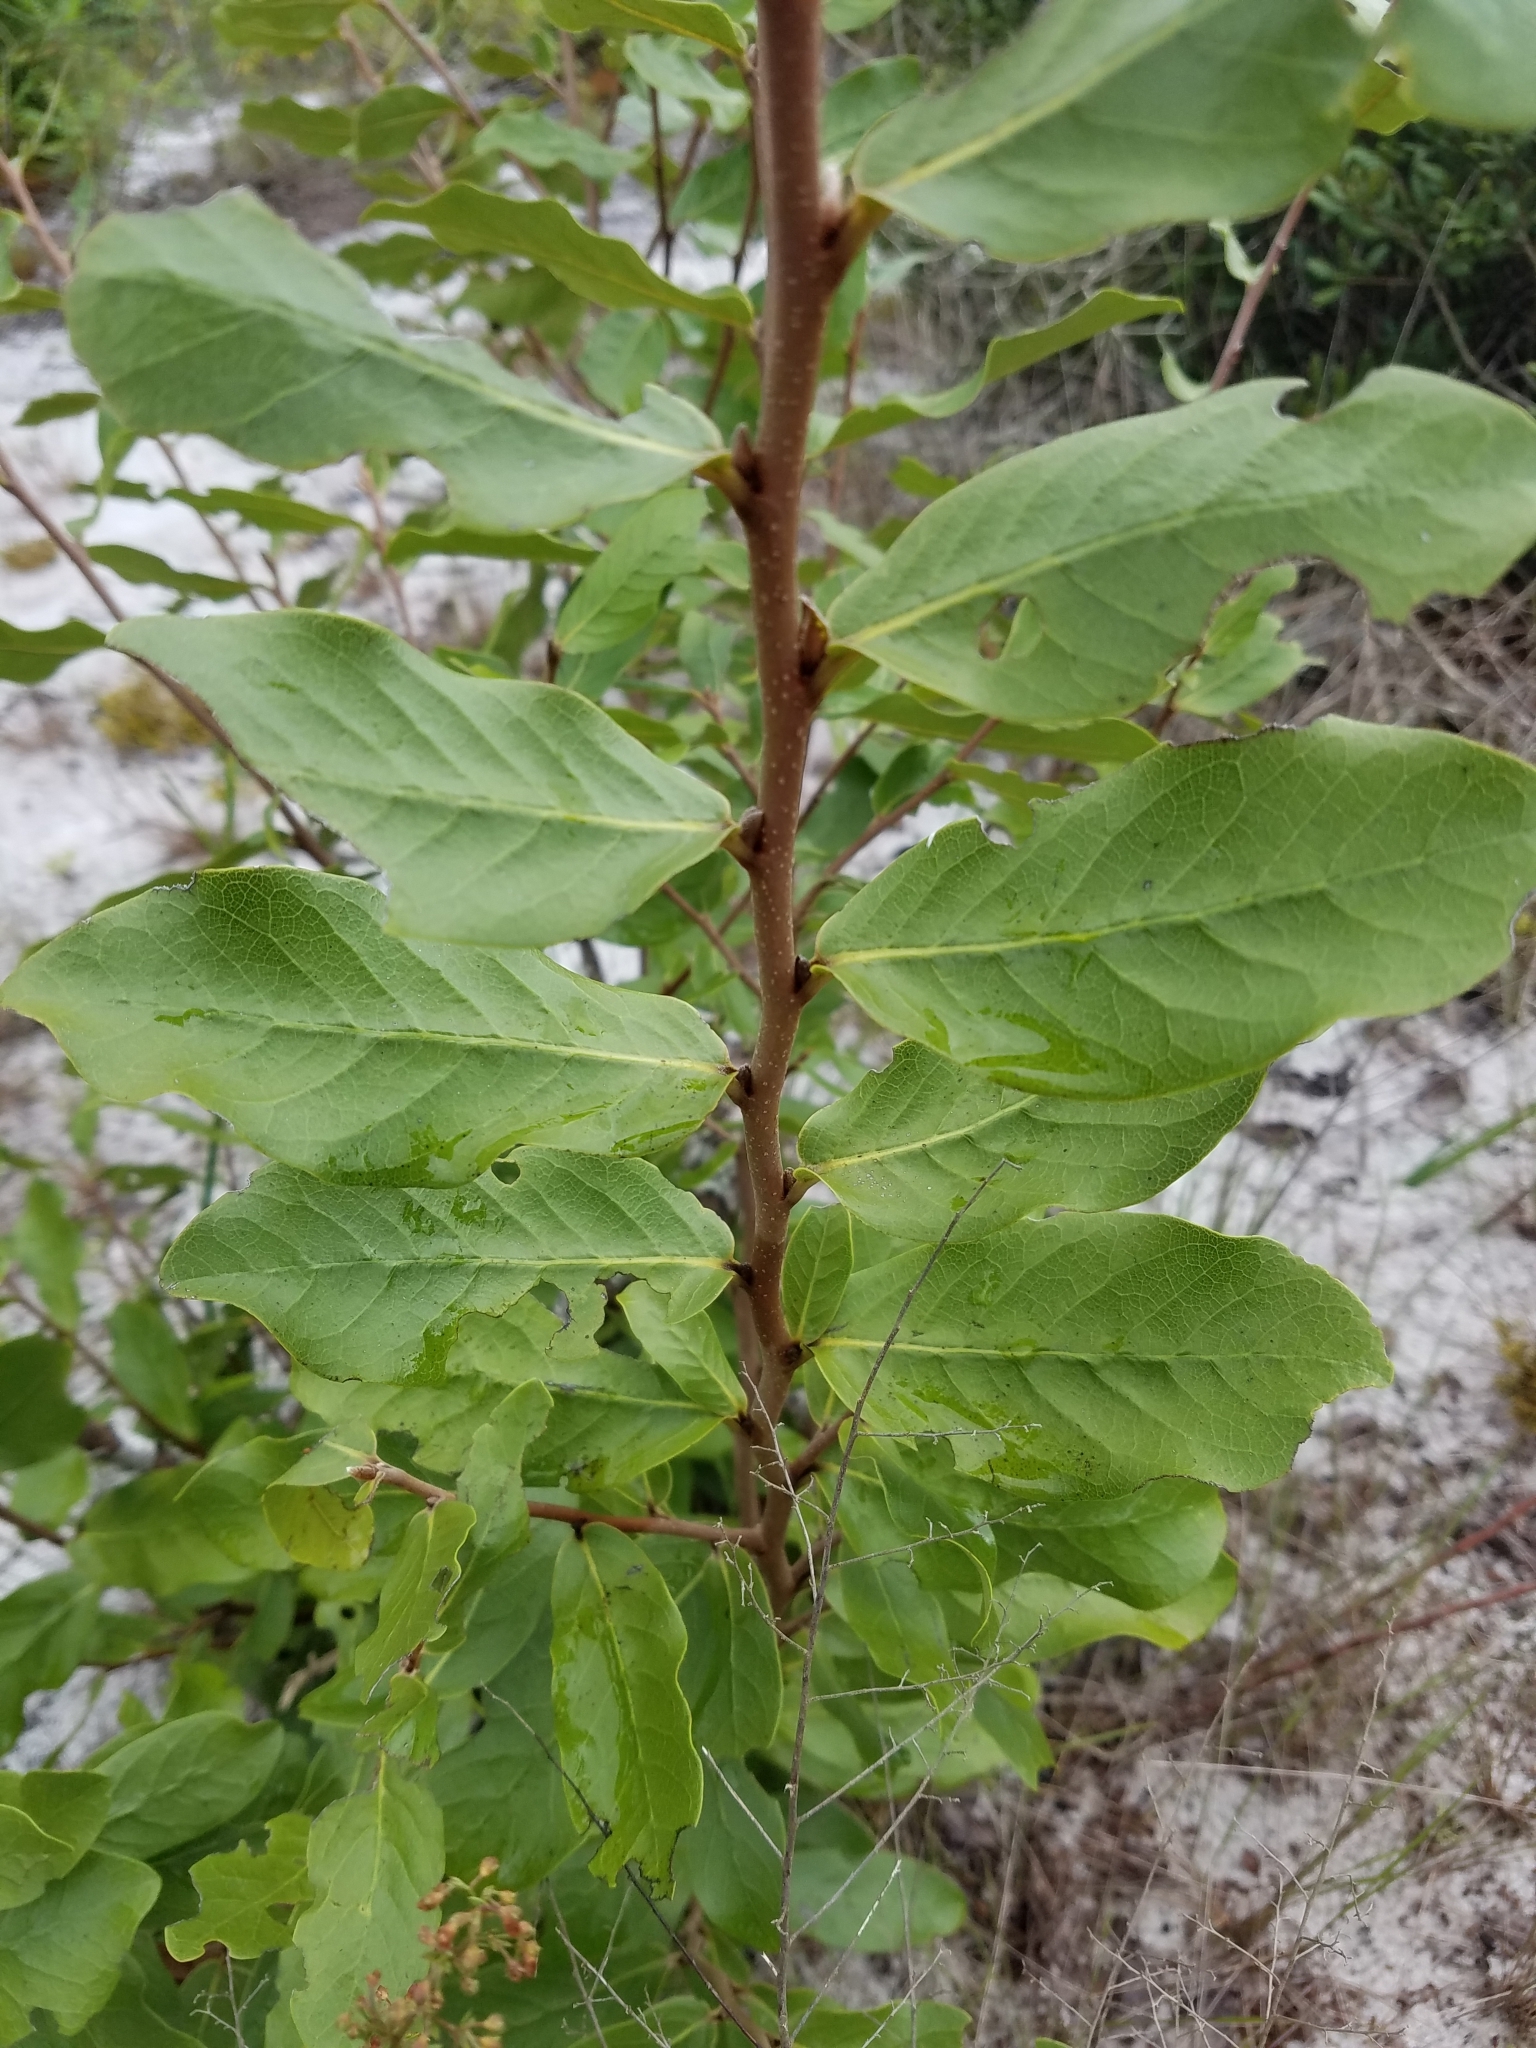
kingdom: Plantae
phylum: Tracheophyta
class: Magnoliopsida
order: Magnoliales
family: Annonaceae
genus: Asimina
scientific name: Asimina obovata
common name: Flag pawpaw
